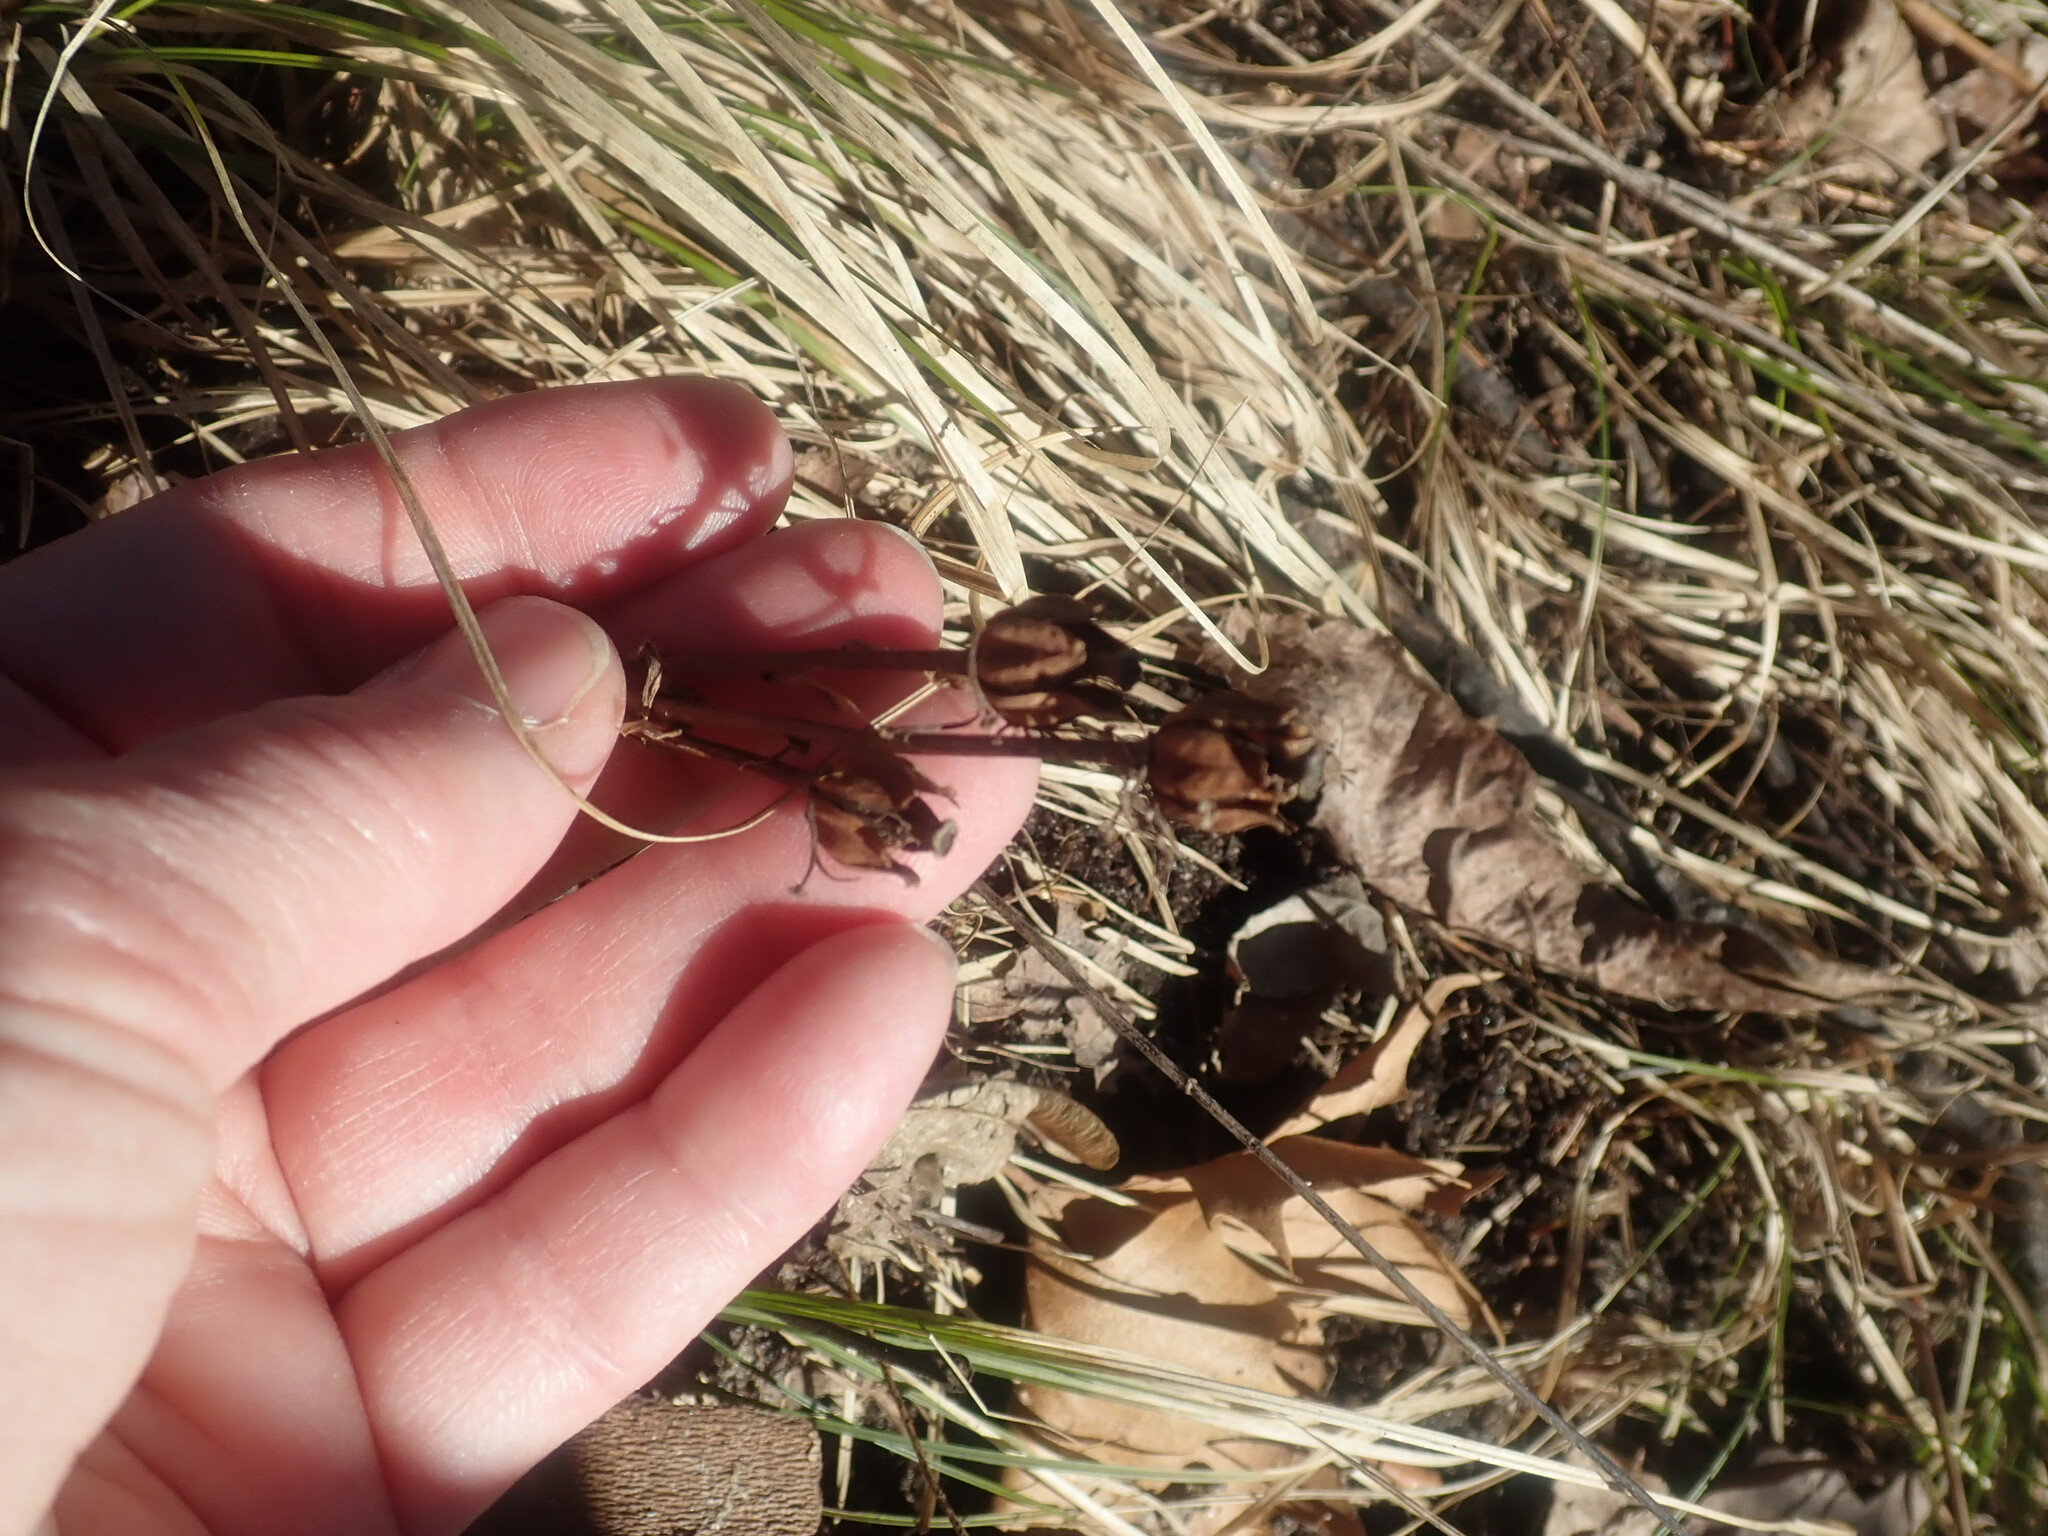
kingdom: Plantae
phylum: Tracheophyta
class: Magnoliopsida
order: Ericales
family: Ericaceae
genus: Monotropa
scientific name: Monotropa uniflora
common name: Convulsion root
